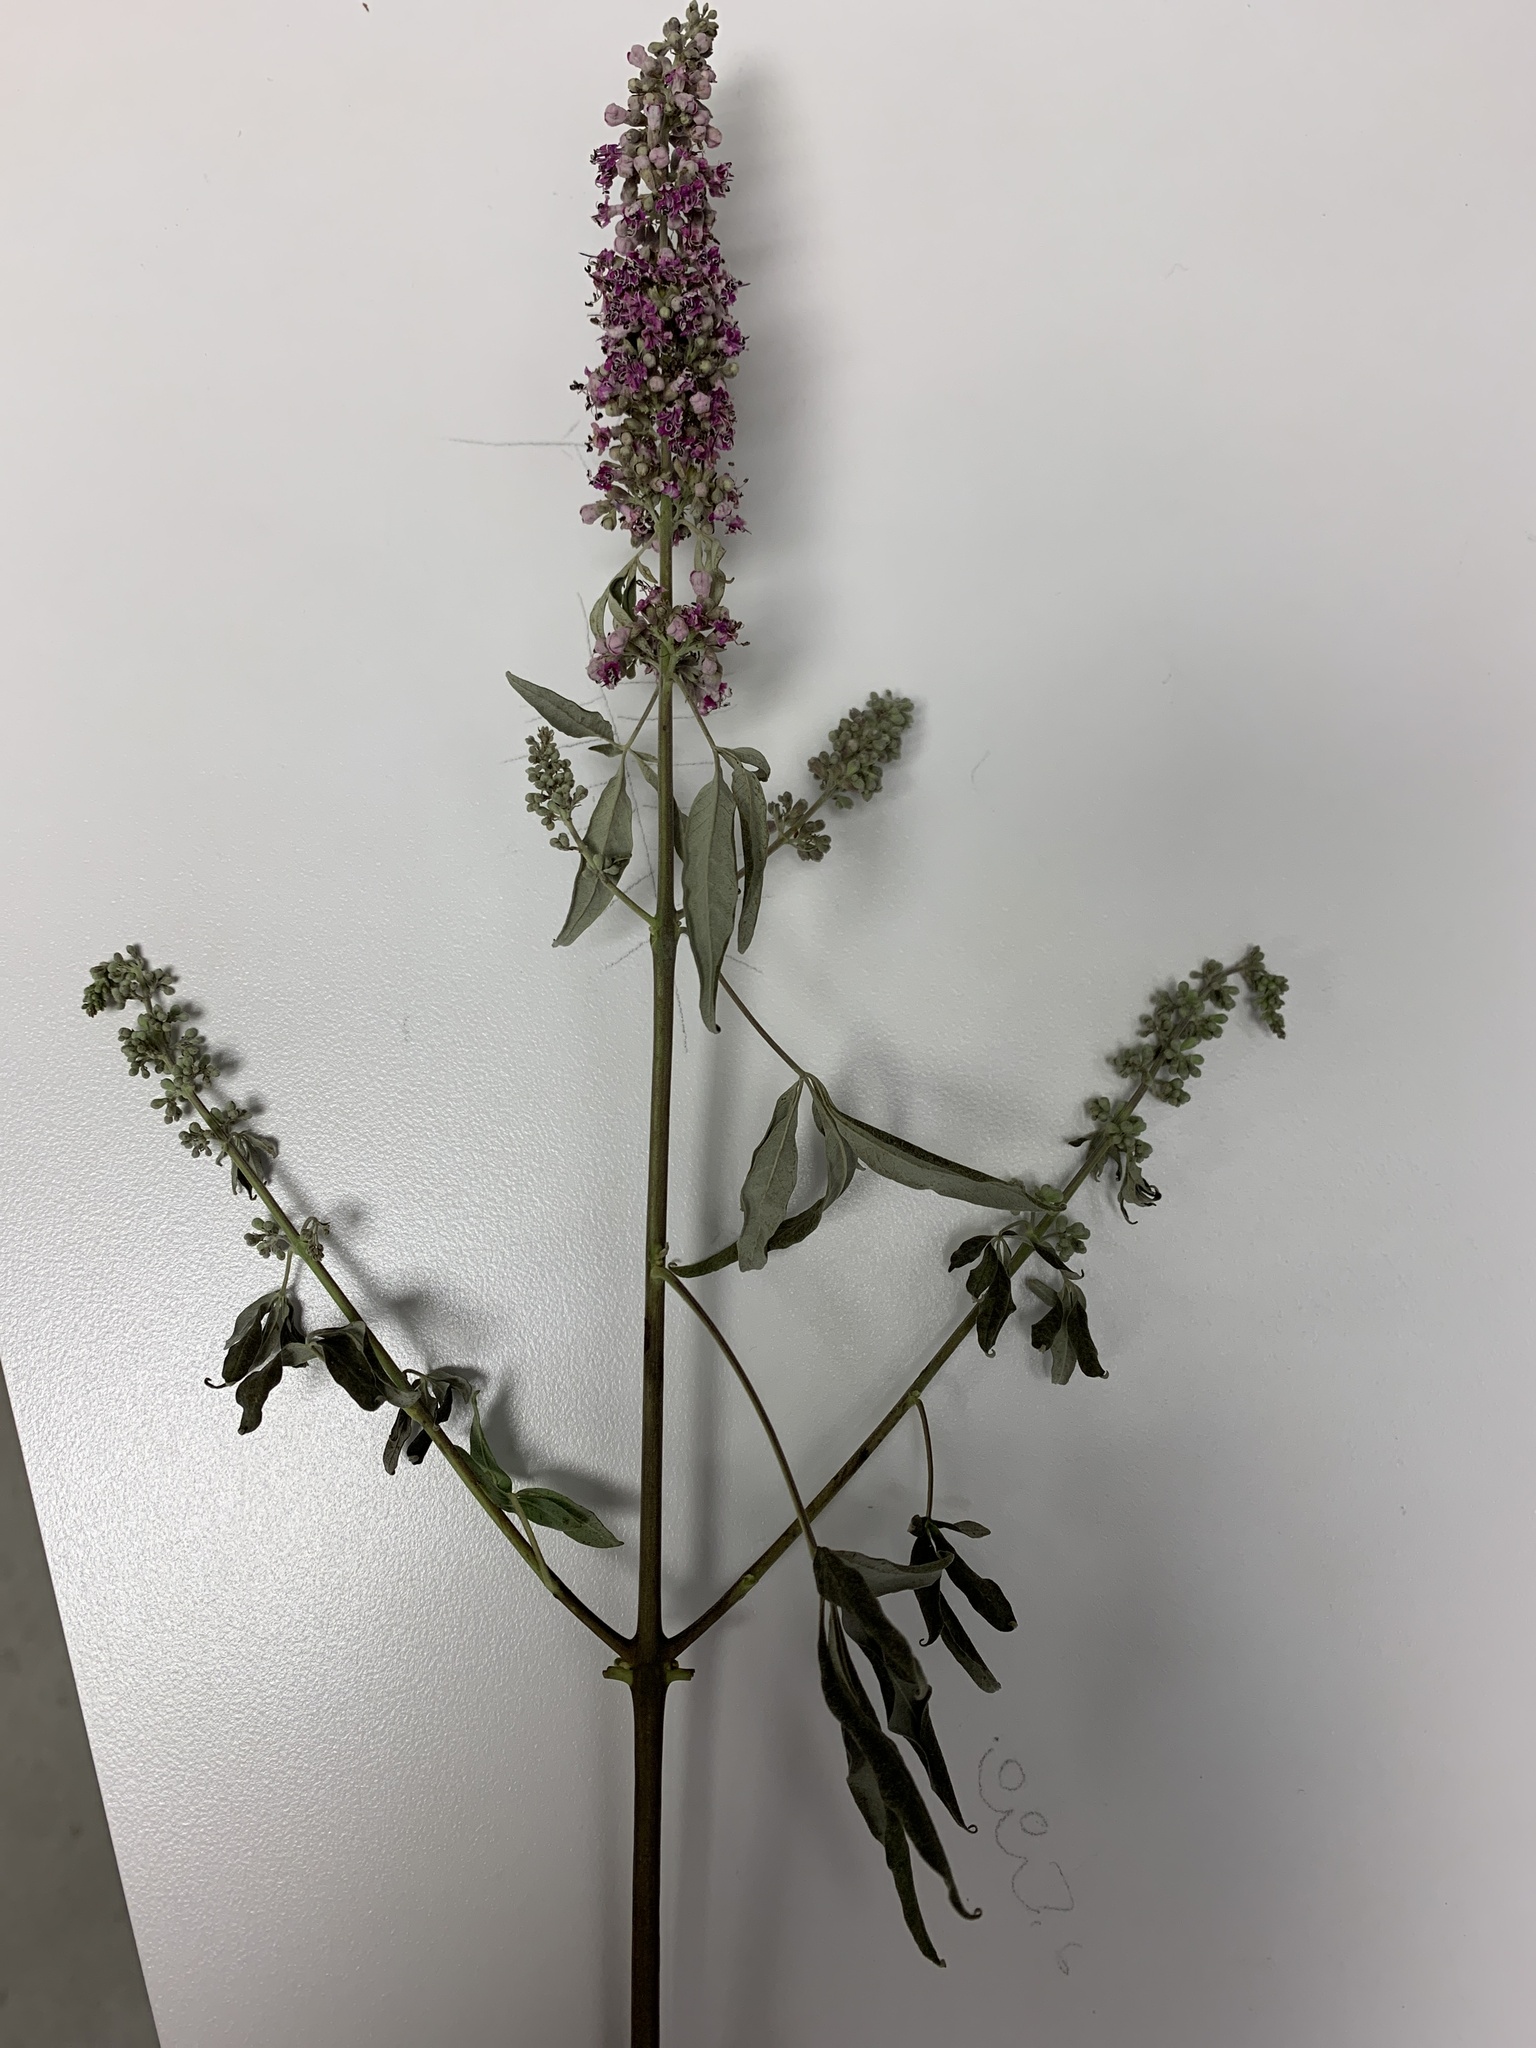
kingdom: Plantae
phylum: Tracheophyta
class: Magnoliopsida
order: Lamiales
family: Lamiaceae
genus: Vitex
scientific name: Vitex agnus-castus
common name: Chasteberry
